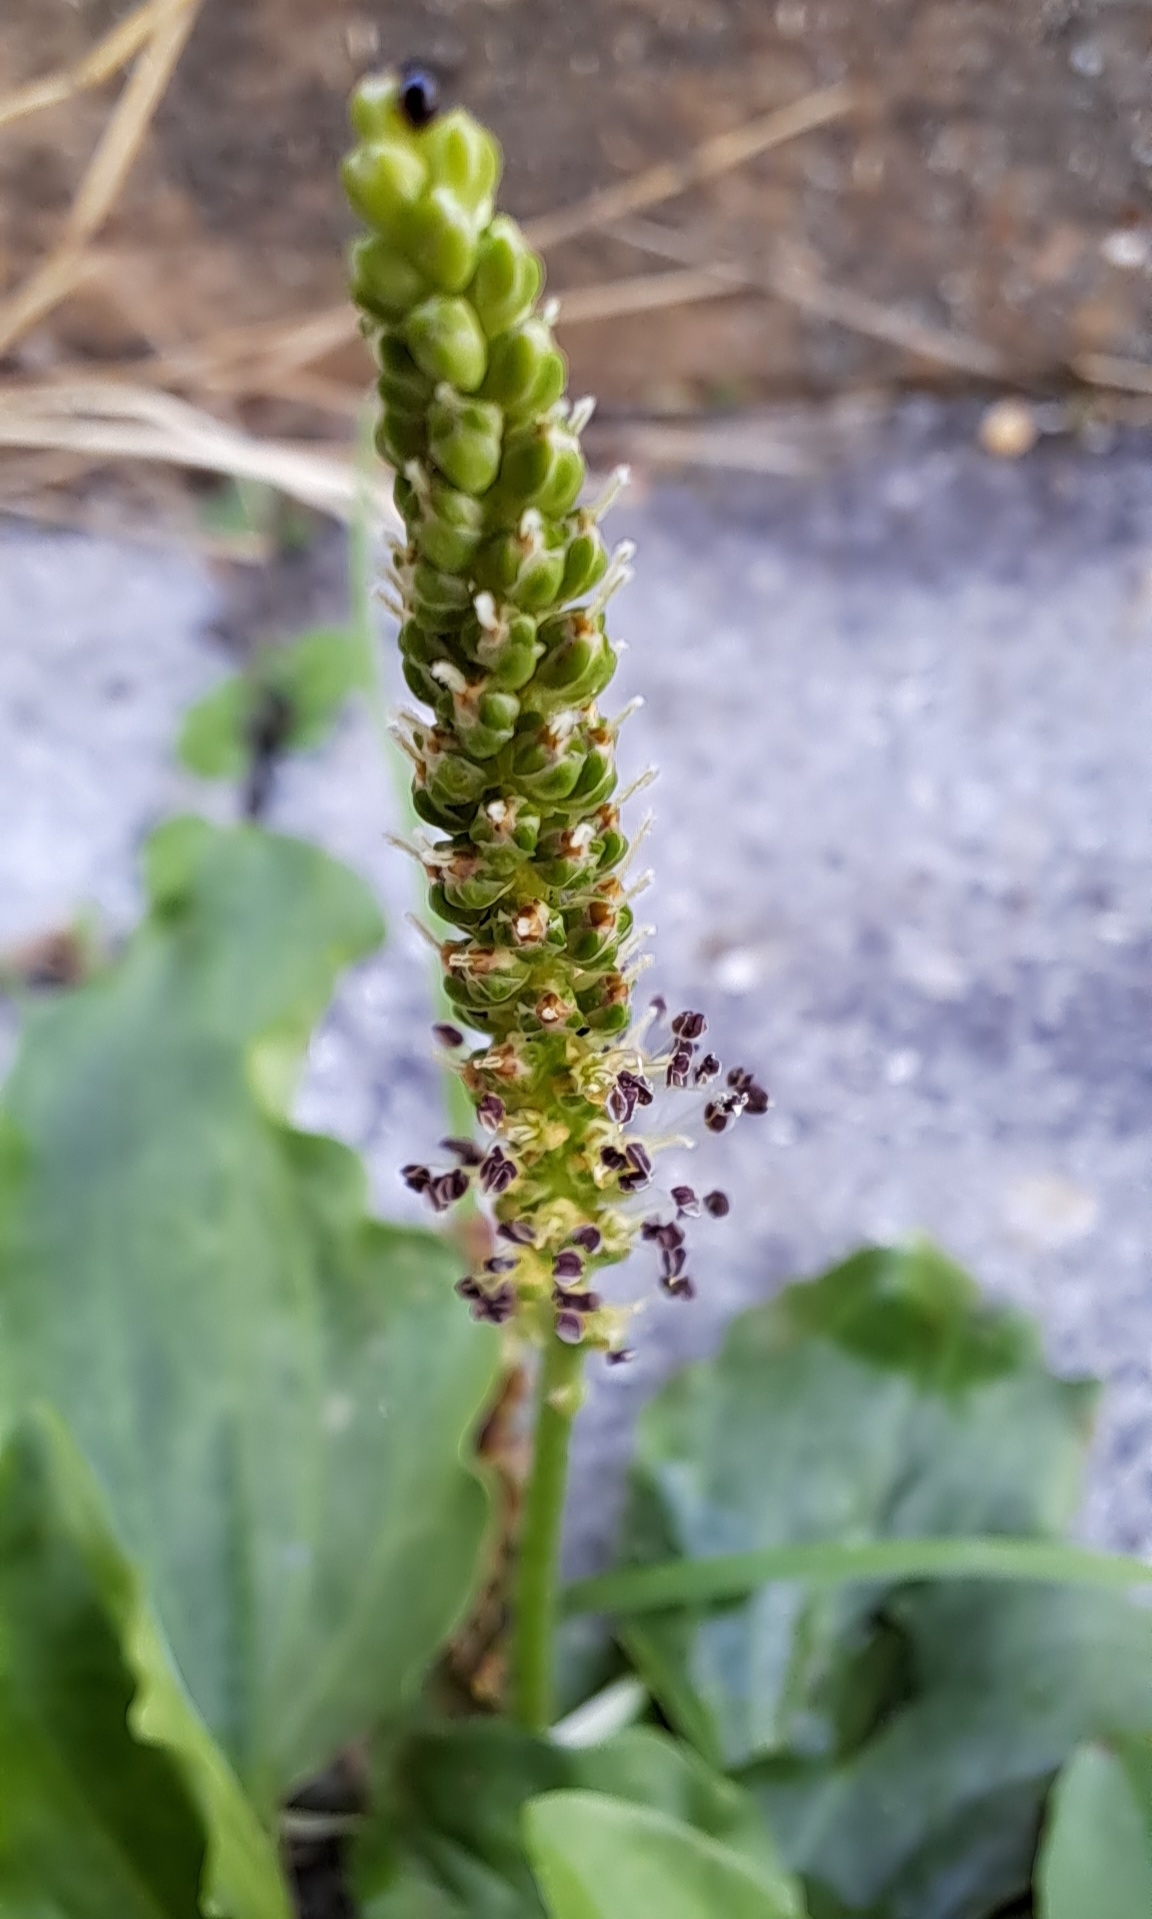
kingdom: Plantae
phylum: Tracheophyta
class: Magnoliopsida
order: Lamiales
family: Plantaginaceae
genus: Plantago
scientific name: Plantago major
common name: Common plantain
